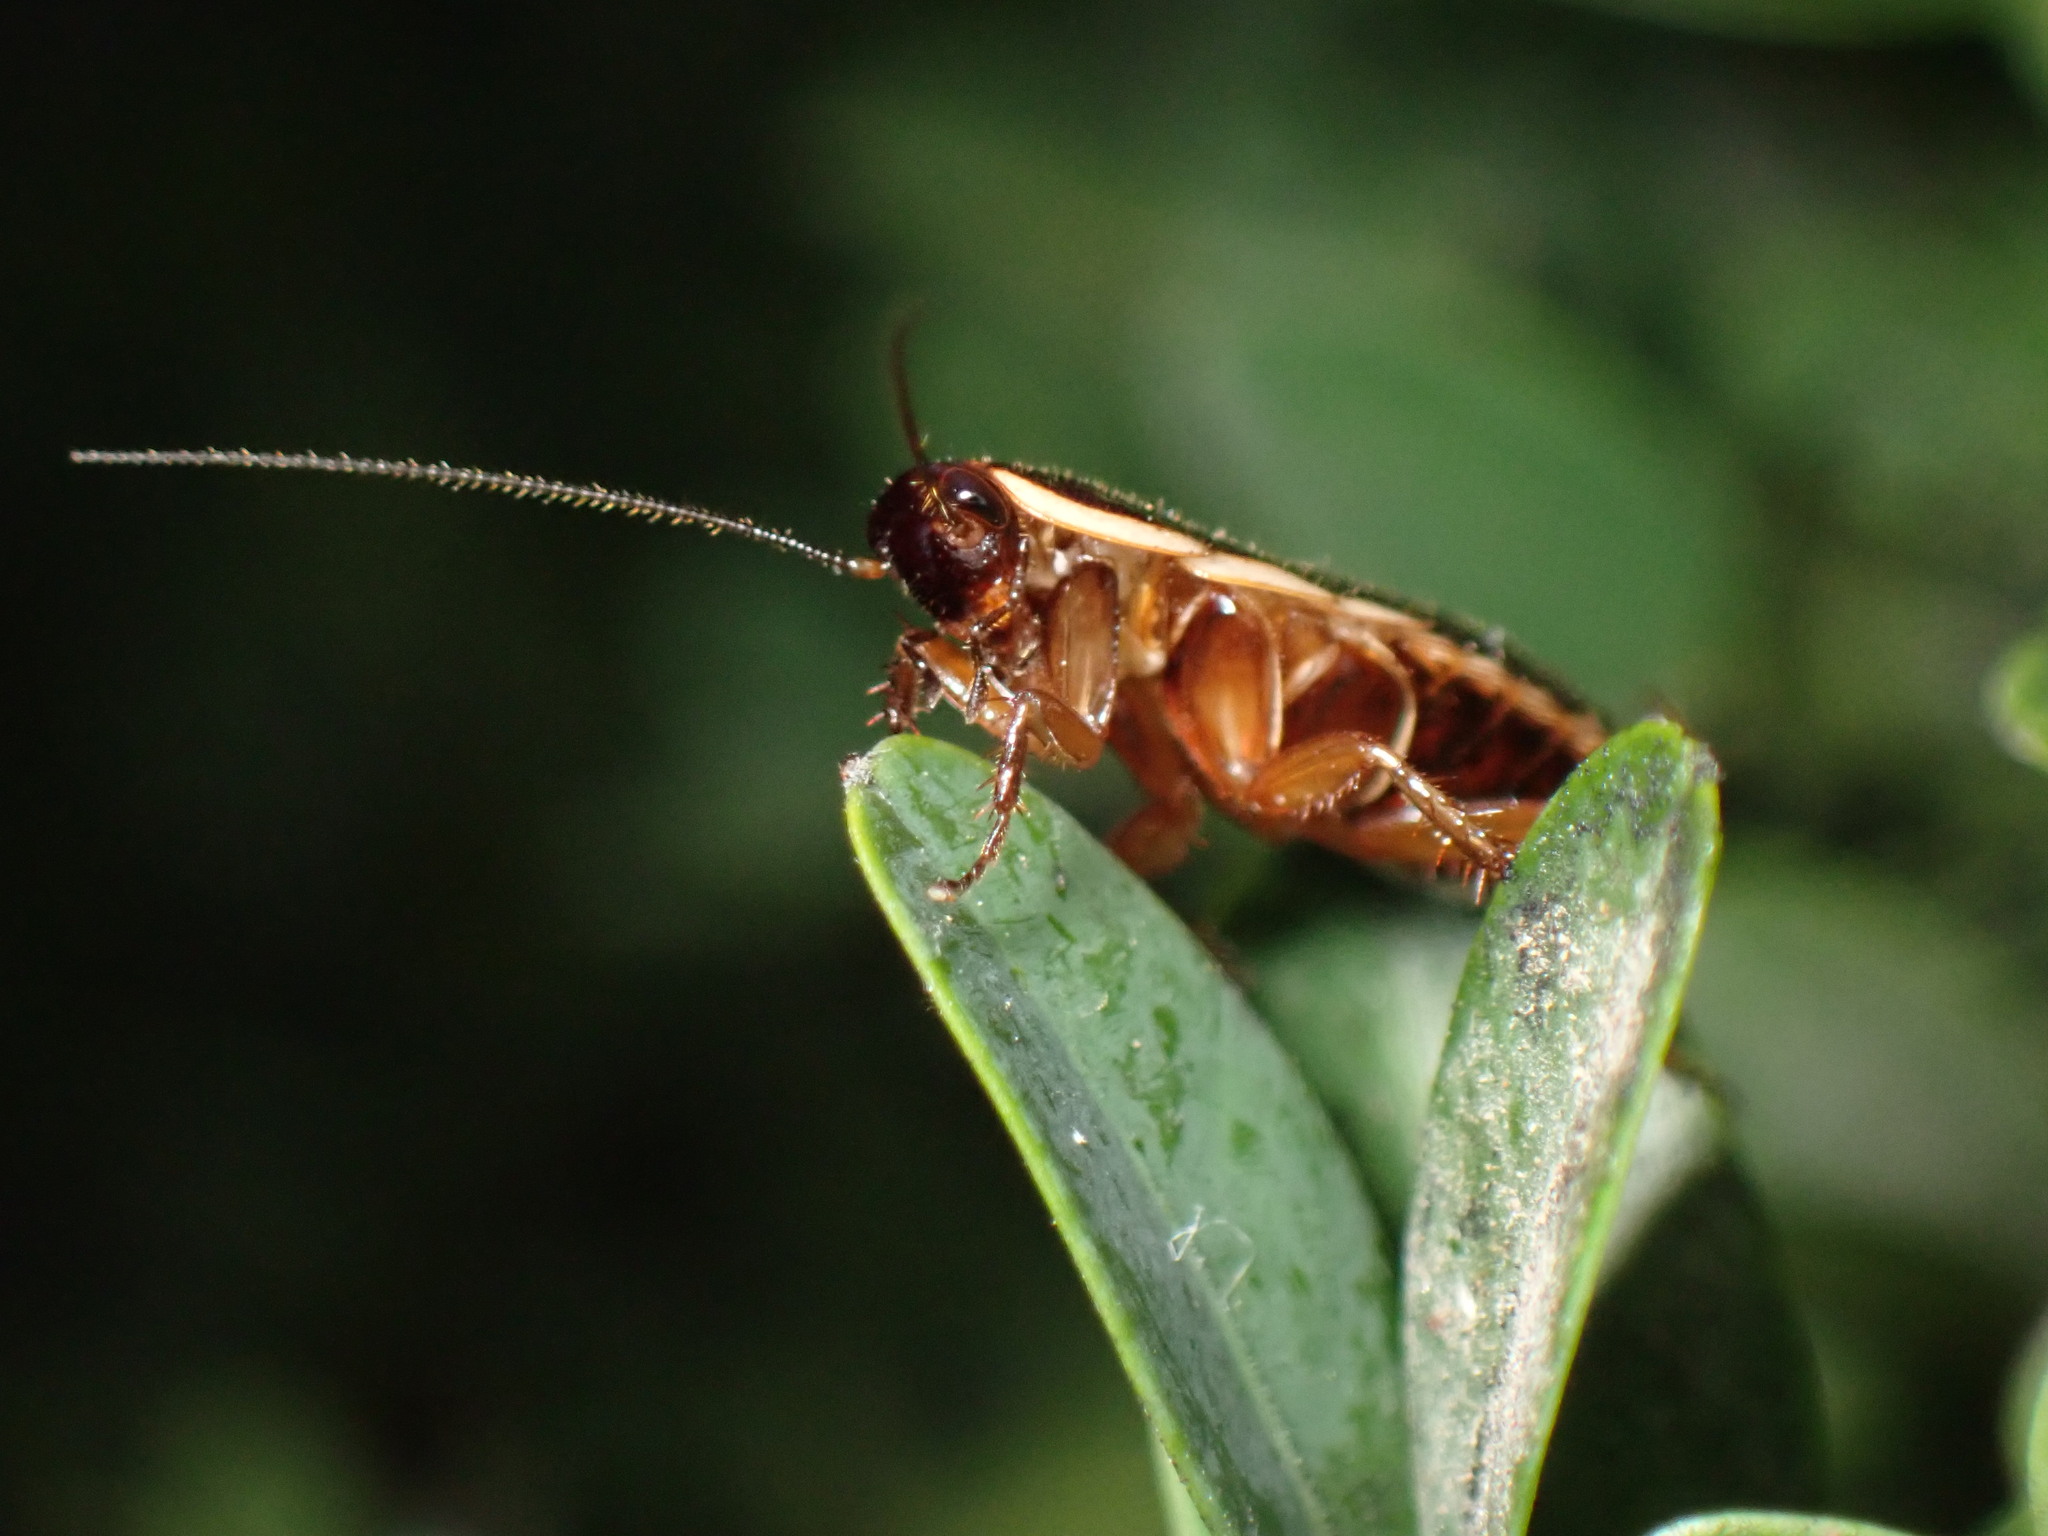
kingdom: Animalia
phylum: Arthropoda
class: Insecta
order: Blattodea
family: Ectobiidae
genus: Loboptera
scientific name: Loboptera decipiens
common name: Lobe-winged cockroach
